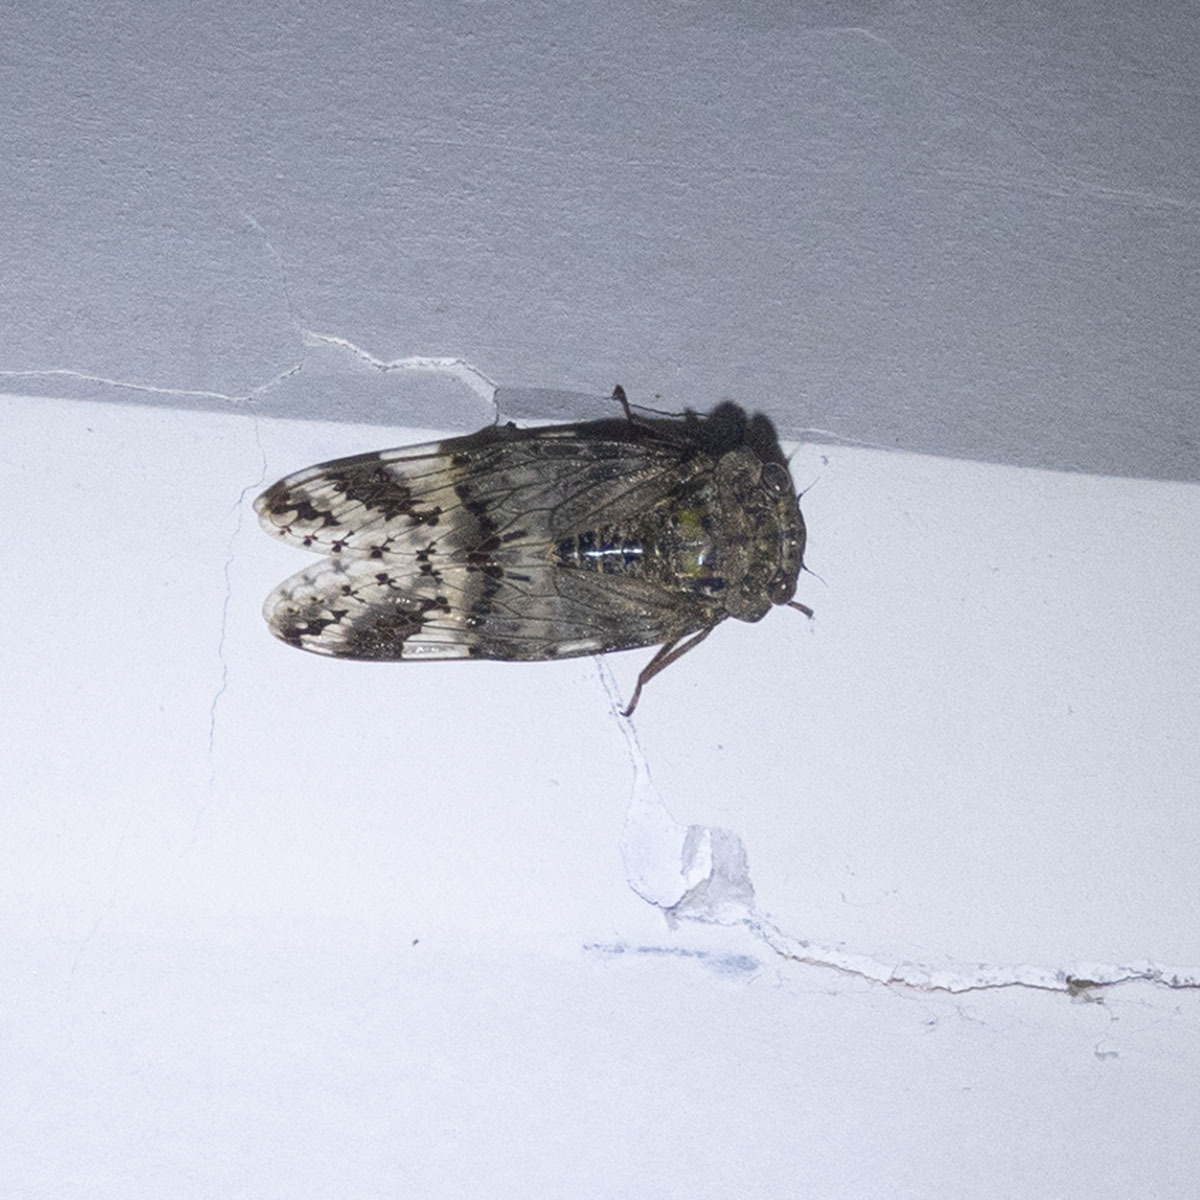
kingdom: Animalia
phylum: Arthropoda
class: Insecta
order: Hemiptera
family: Cicadidae
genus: Platypleura
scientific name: Platypleura assamensis
